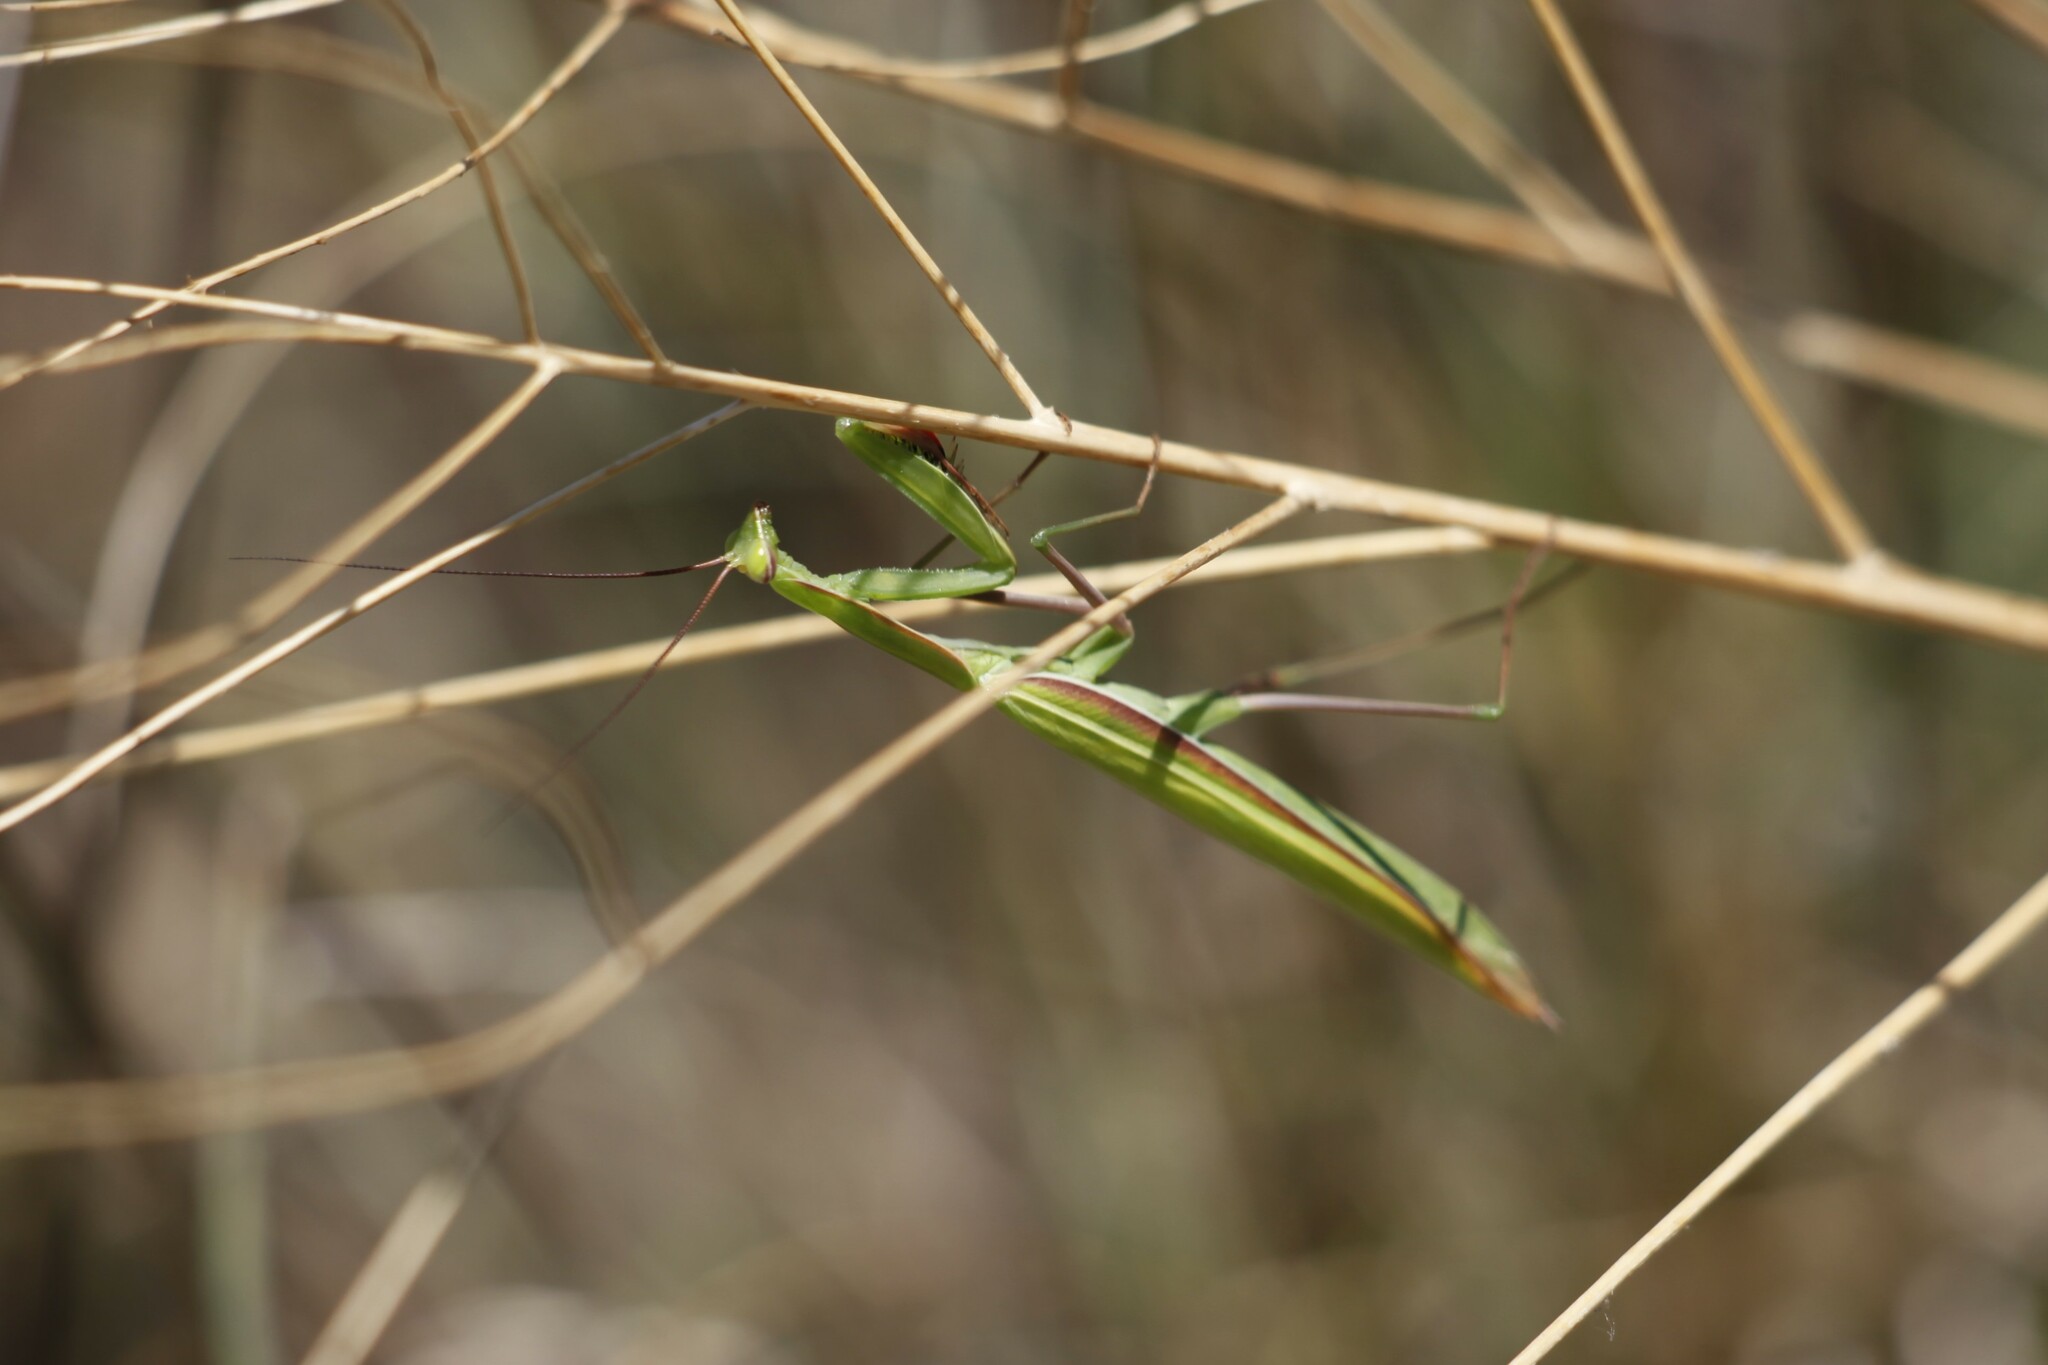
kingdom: Animalia
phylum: Arthropoda
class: Insecta
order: Mantodea
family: Mantidae
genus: Mantis
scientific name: Mantis religiosa
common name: Praying mantis
